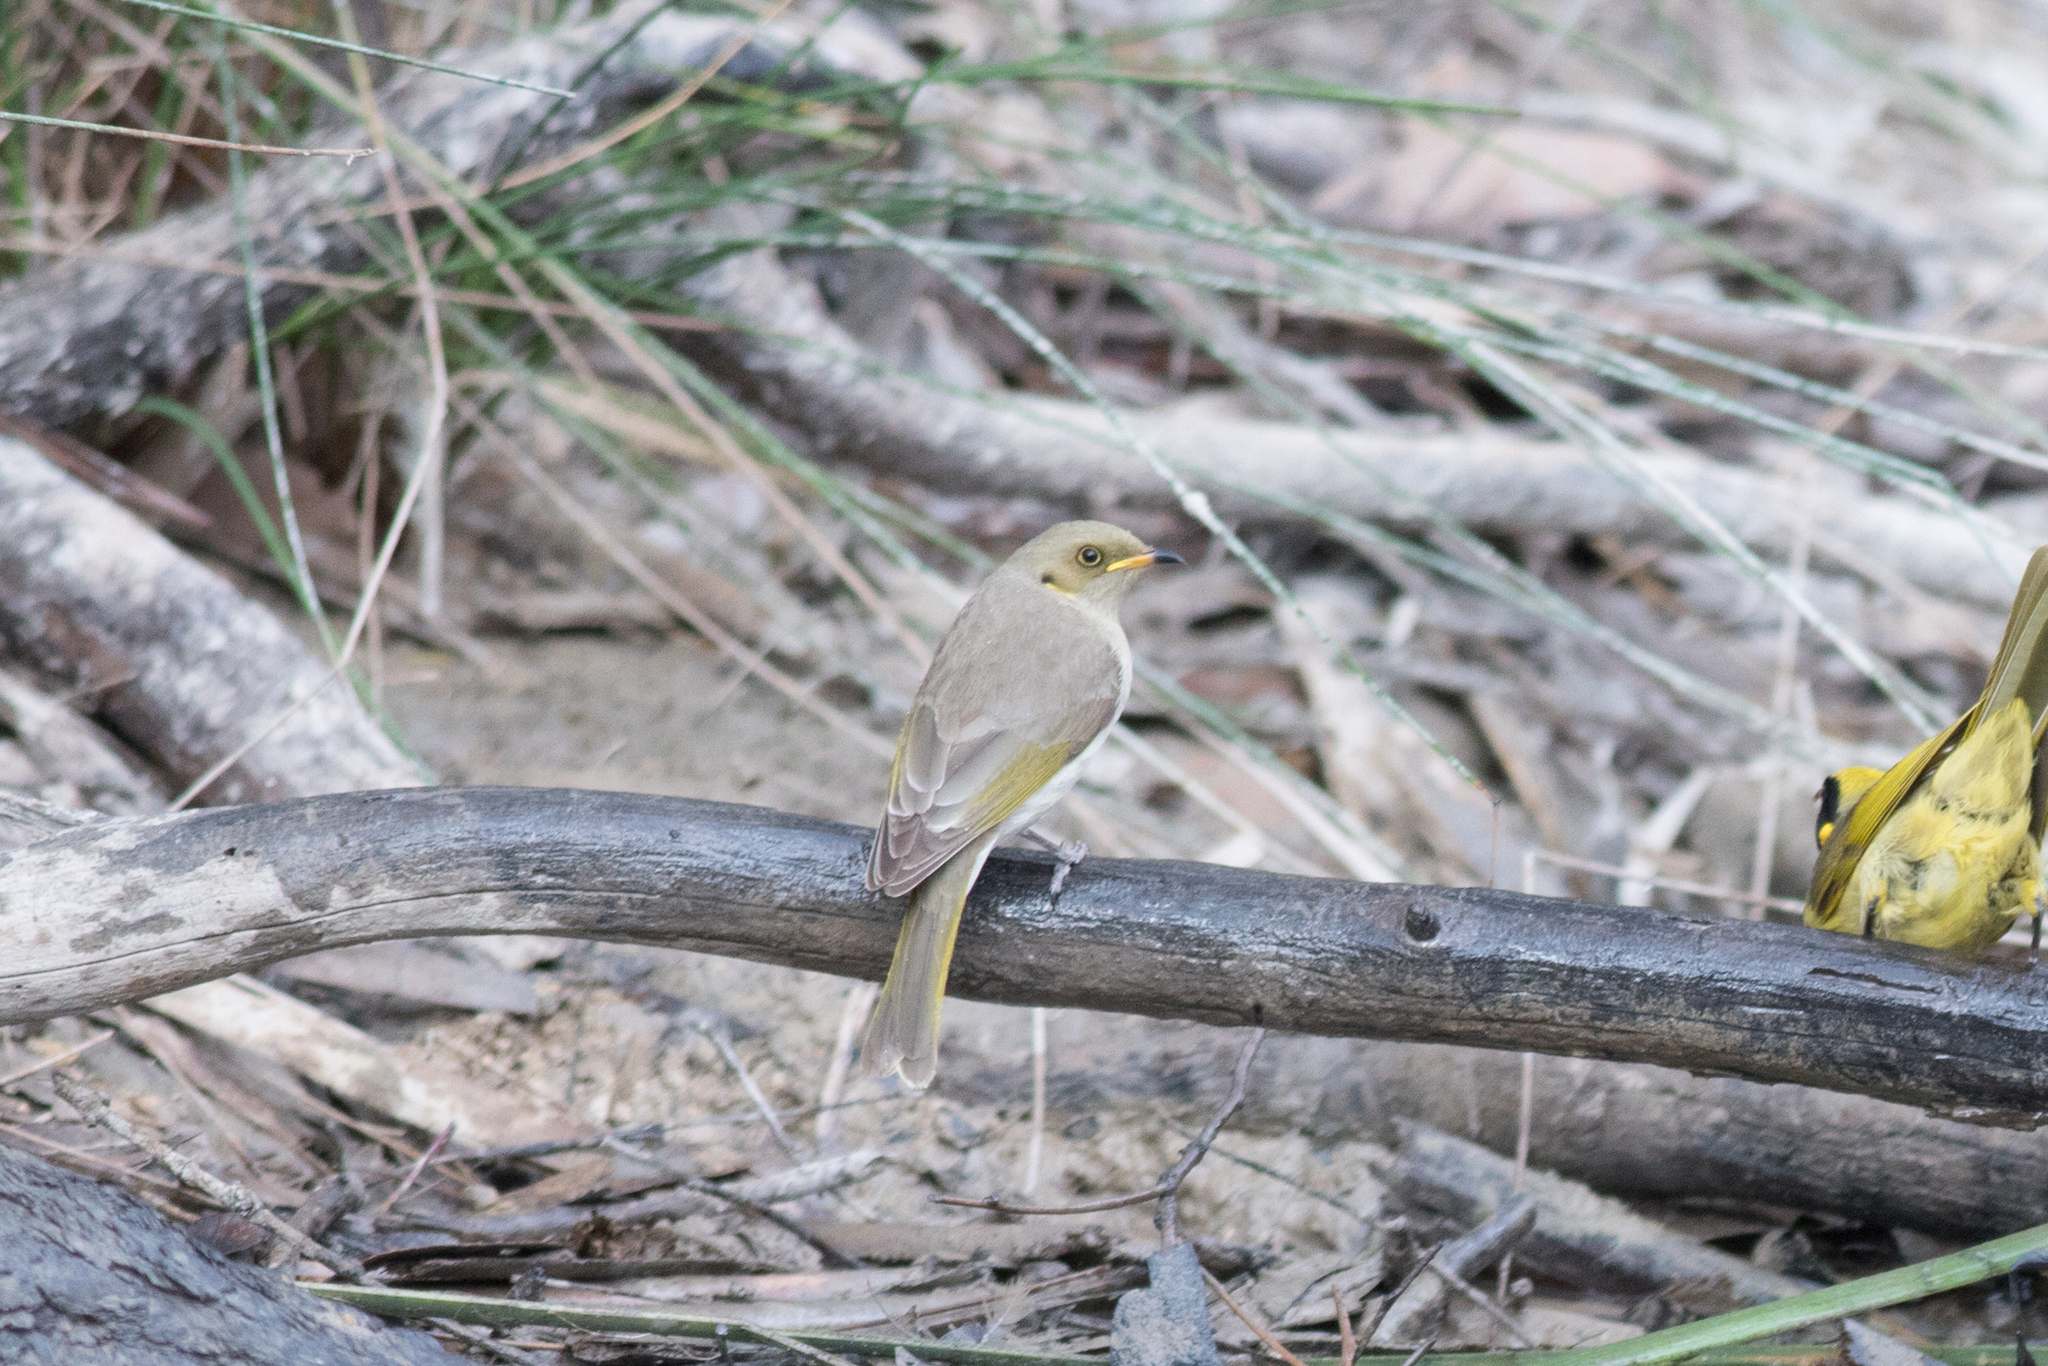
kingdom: Animalia
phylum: Chordata
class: Aves
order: Passeriformes
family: Meliphagidae
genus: Ptilotula
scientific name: Ptilotula fusca
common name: Fuscous honeyeater
